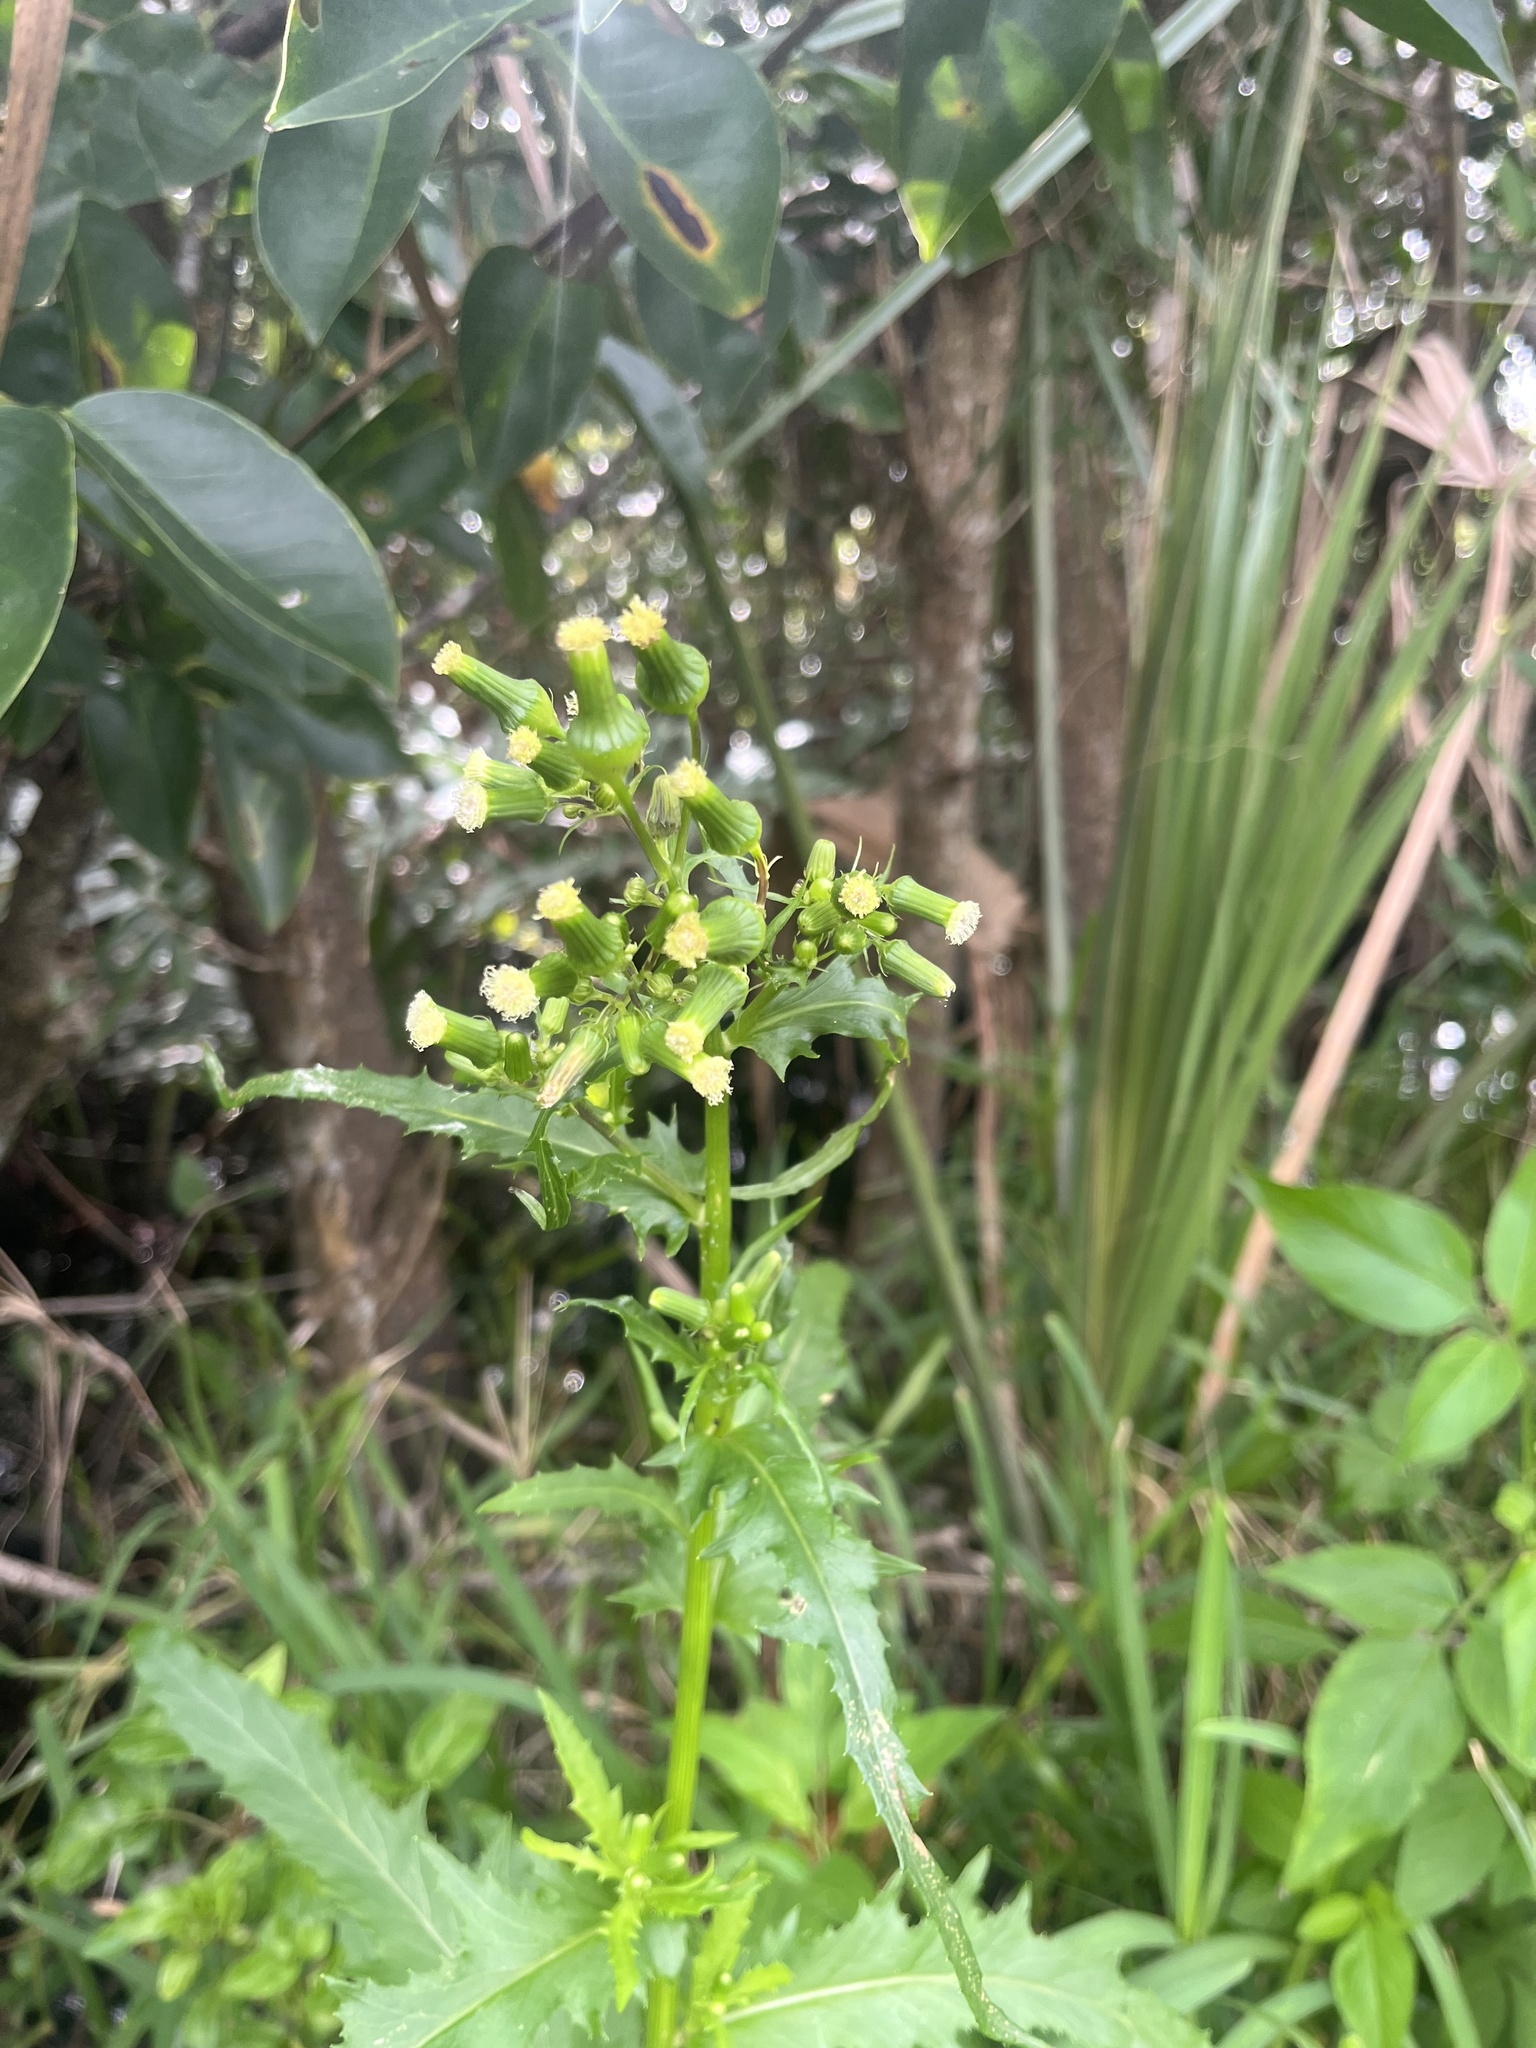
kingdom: Plantae
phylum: Tracheophyta
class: Magnoliopsida
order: Asterales
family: Asteraceae
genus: Erechtites
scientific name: Erechtites hieraciifolius
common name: American burnweed
